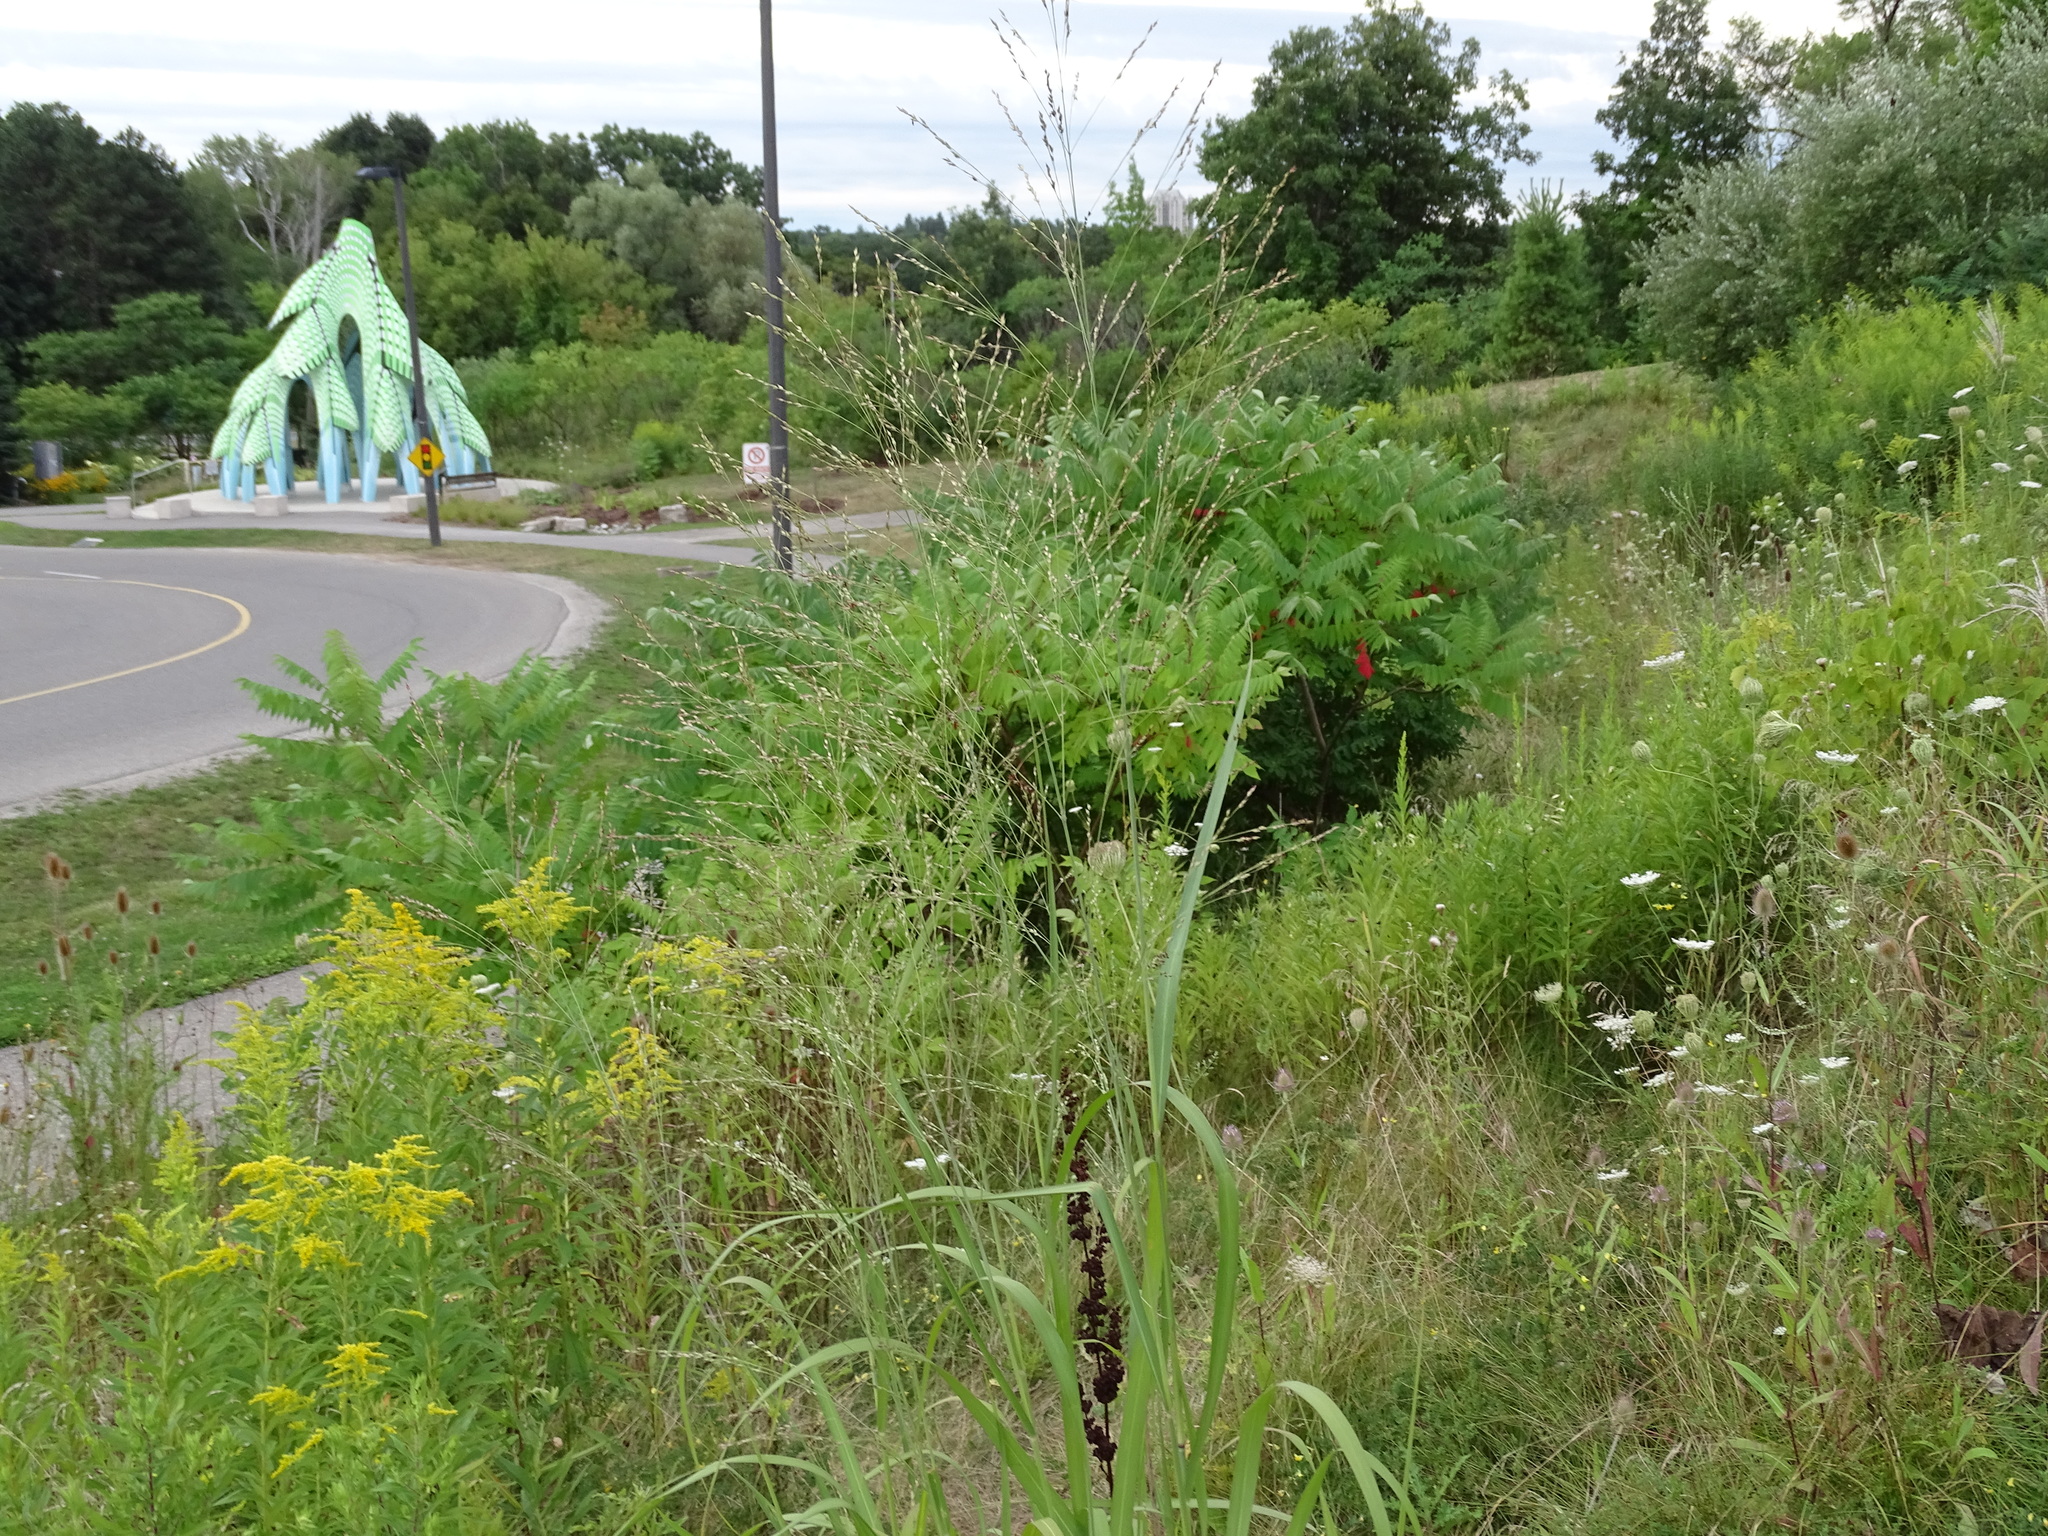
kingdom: Plantae
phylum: Tracheophyta
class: Liliopsida
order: Poales
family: Poaceae
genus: Panicum
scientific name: Panicum virgatum
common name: Switchgrass
